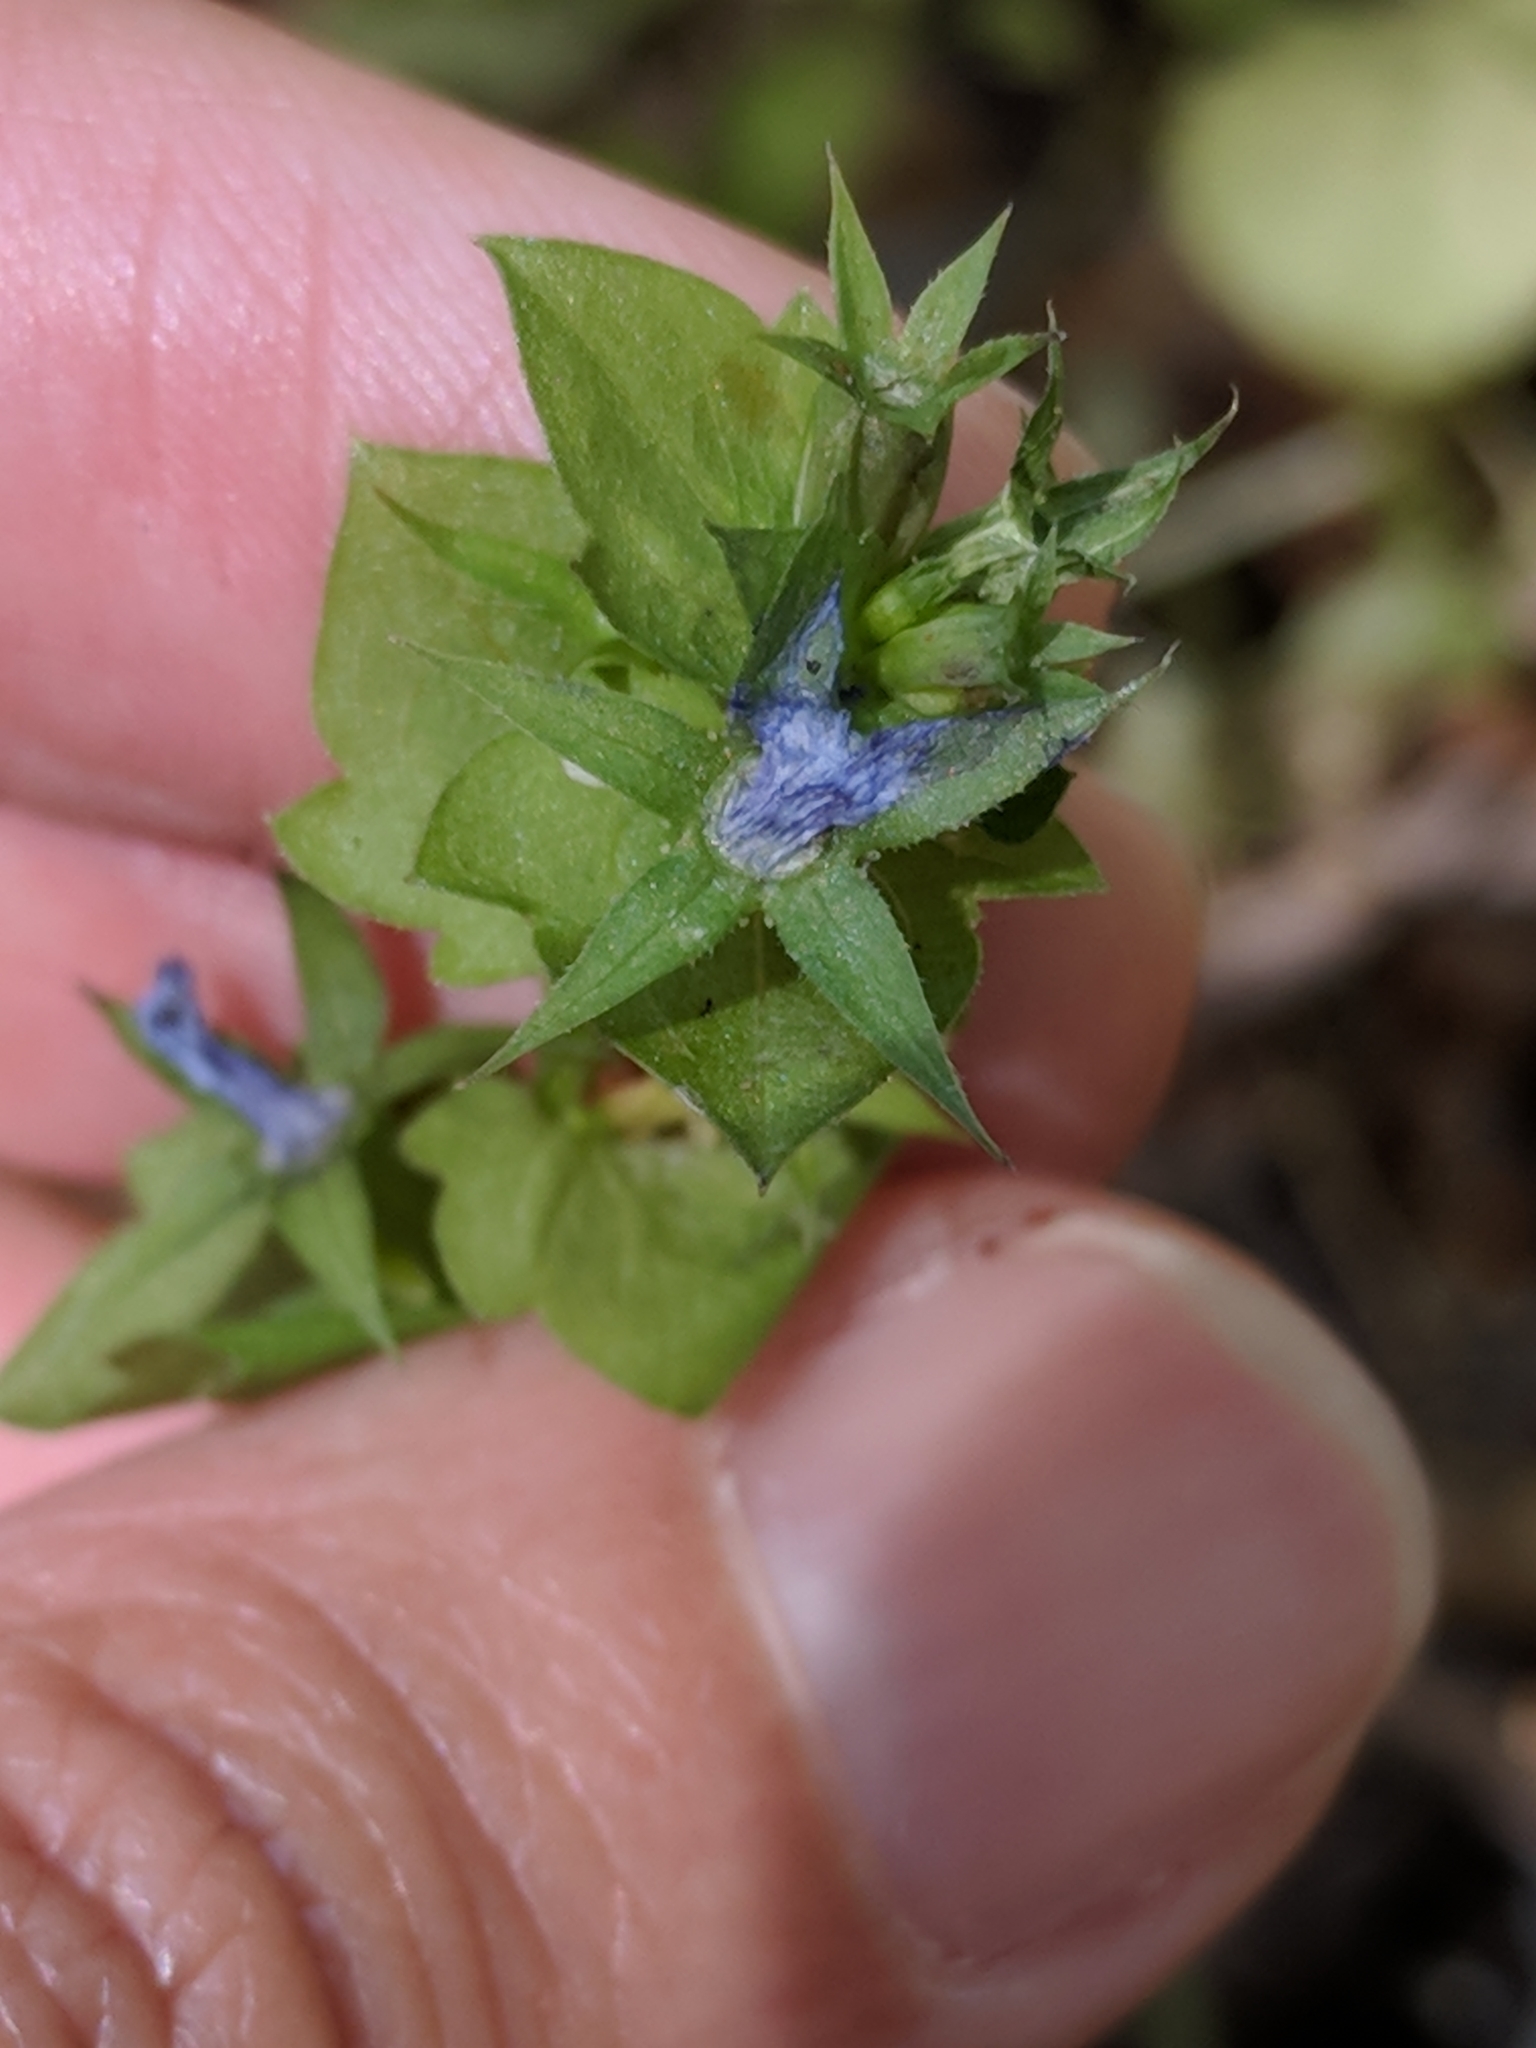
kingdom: Plantae
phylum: Tracheophyta
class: Magnoliopsida
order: Asterales
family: Campanulaceae
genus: Triodanis
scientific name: Triodanis perfoliata
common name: Clasping venus' looking-glass
